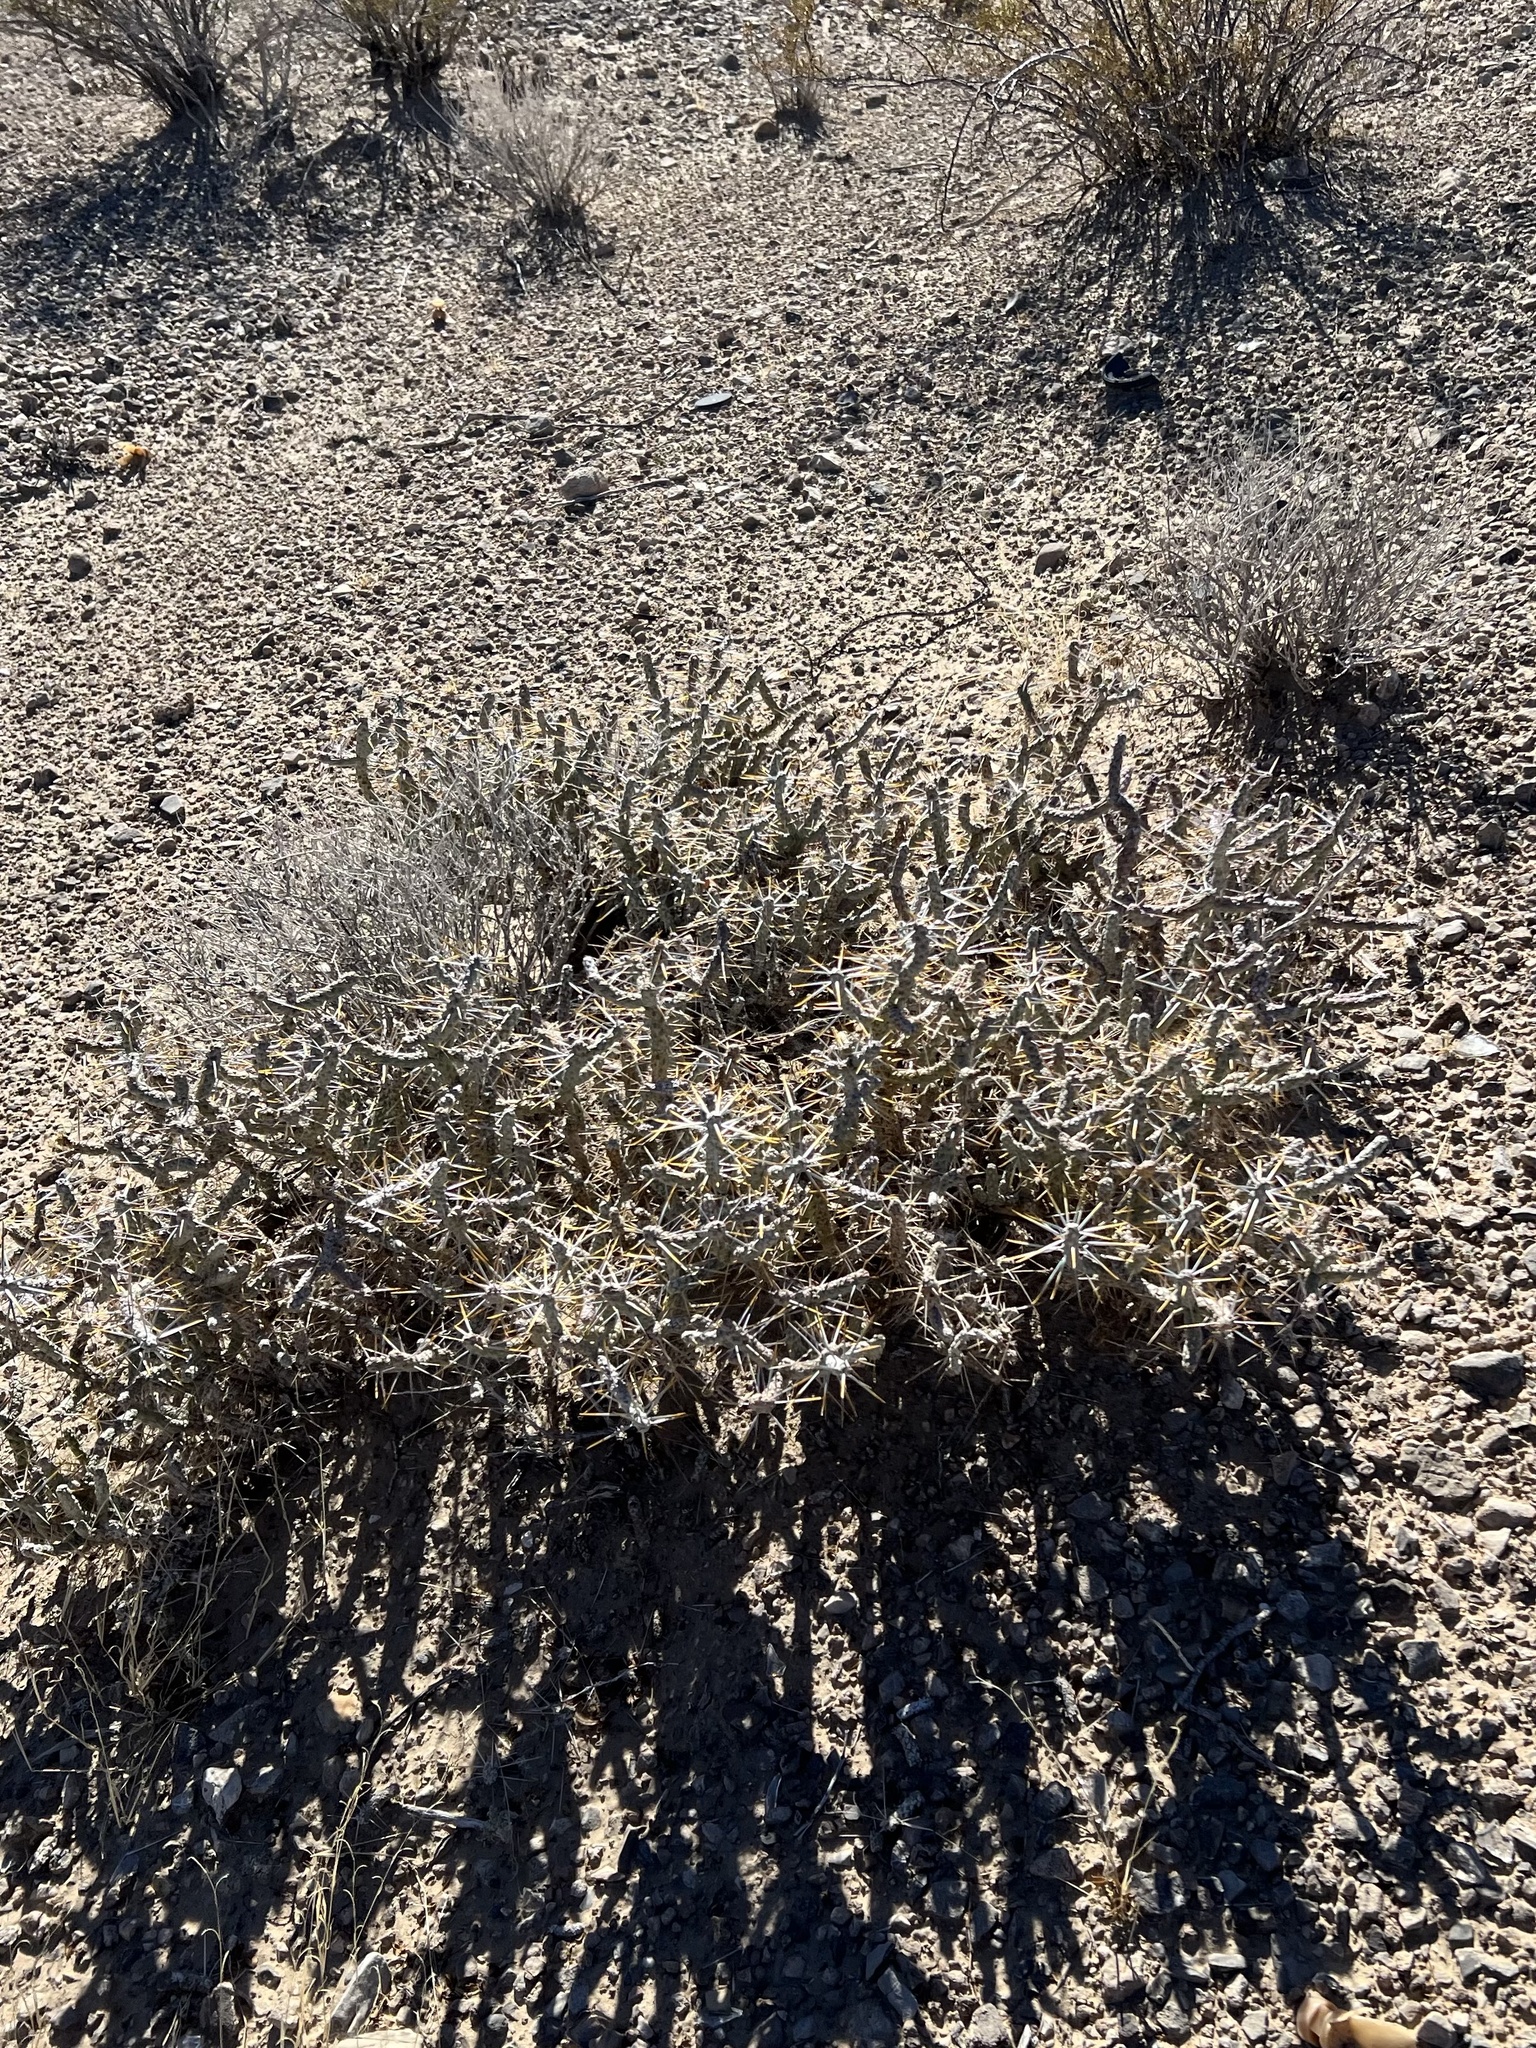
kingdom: Plantae
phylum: Tracheophyta
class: Magnoliopsida
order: Caryophyllales
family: Cactaceae
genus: Cylindropuntia
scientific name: Cylindropuntia ramosissima
